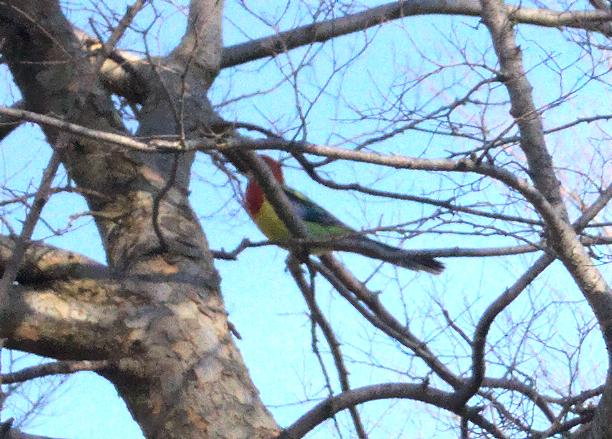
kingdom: Animalia
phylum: Chordata
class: Aves
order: Psittaciformes
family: Psittacidae
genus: Platycercus
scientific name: Platycercus eximius
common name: Eastern rosella
